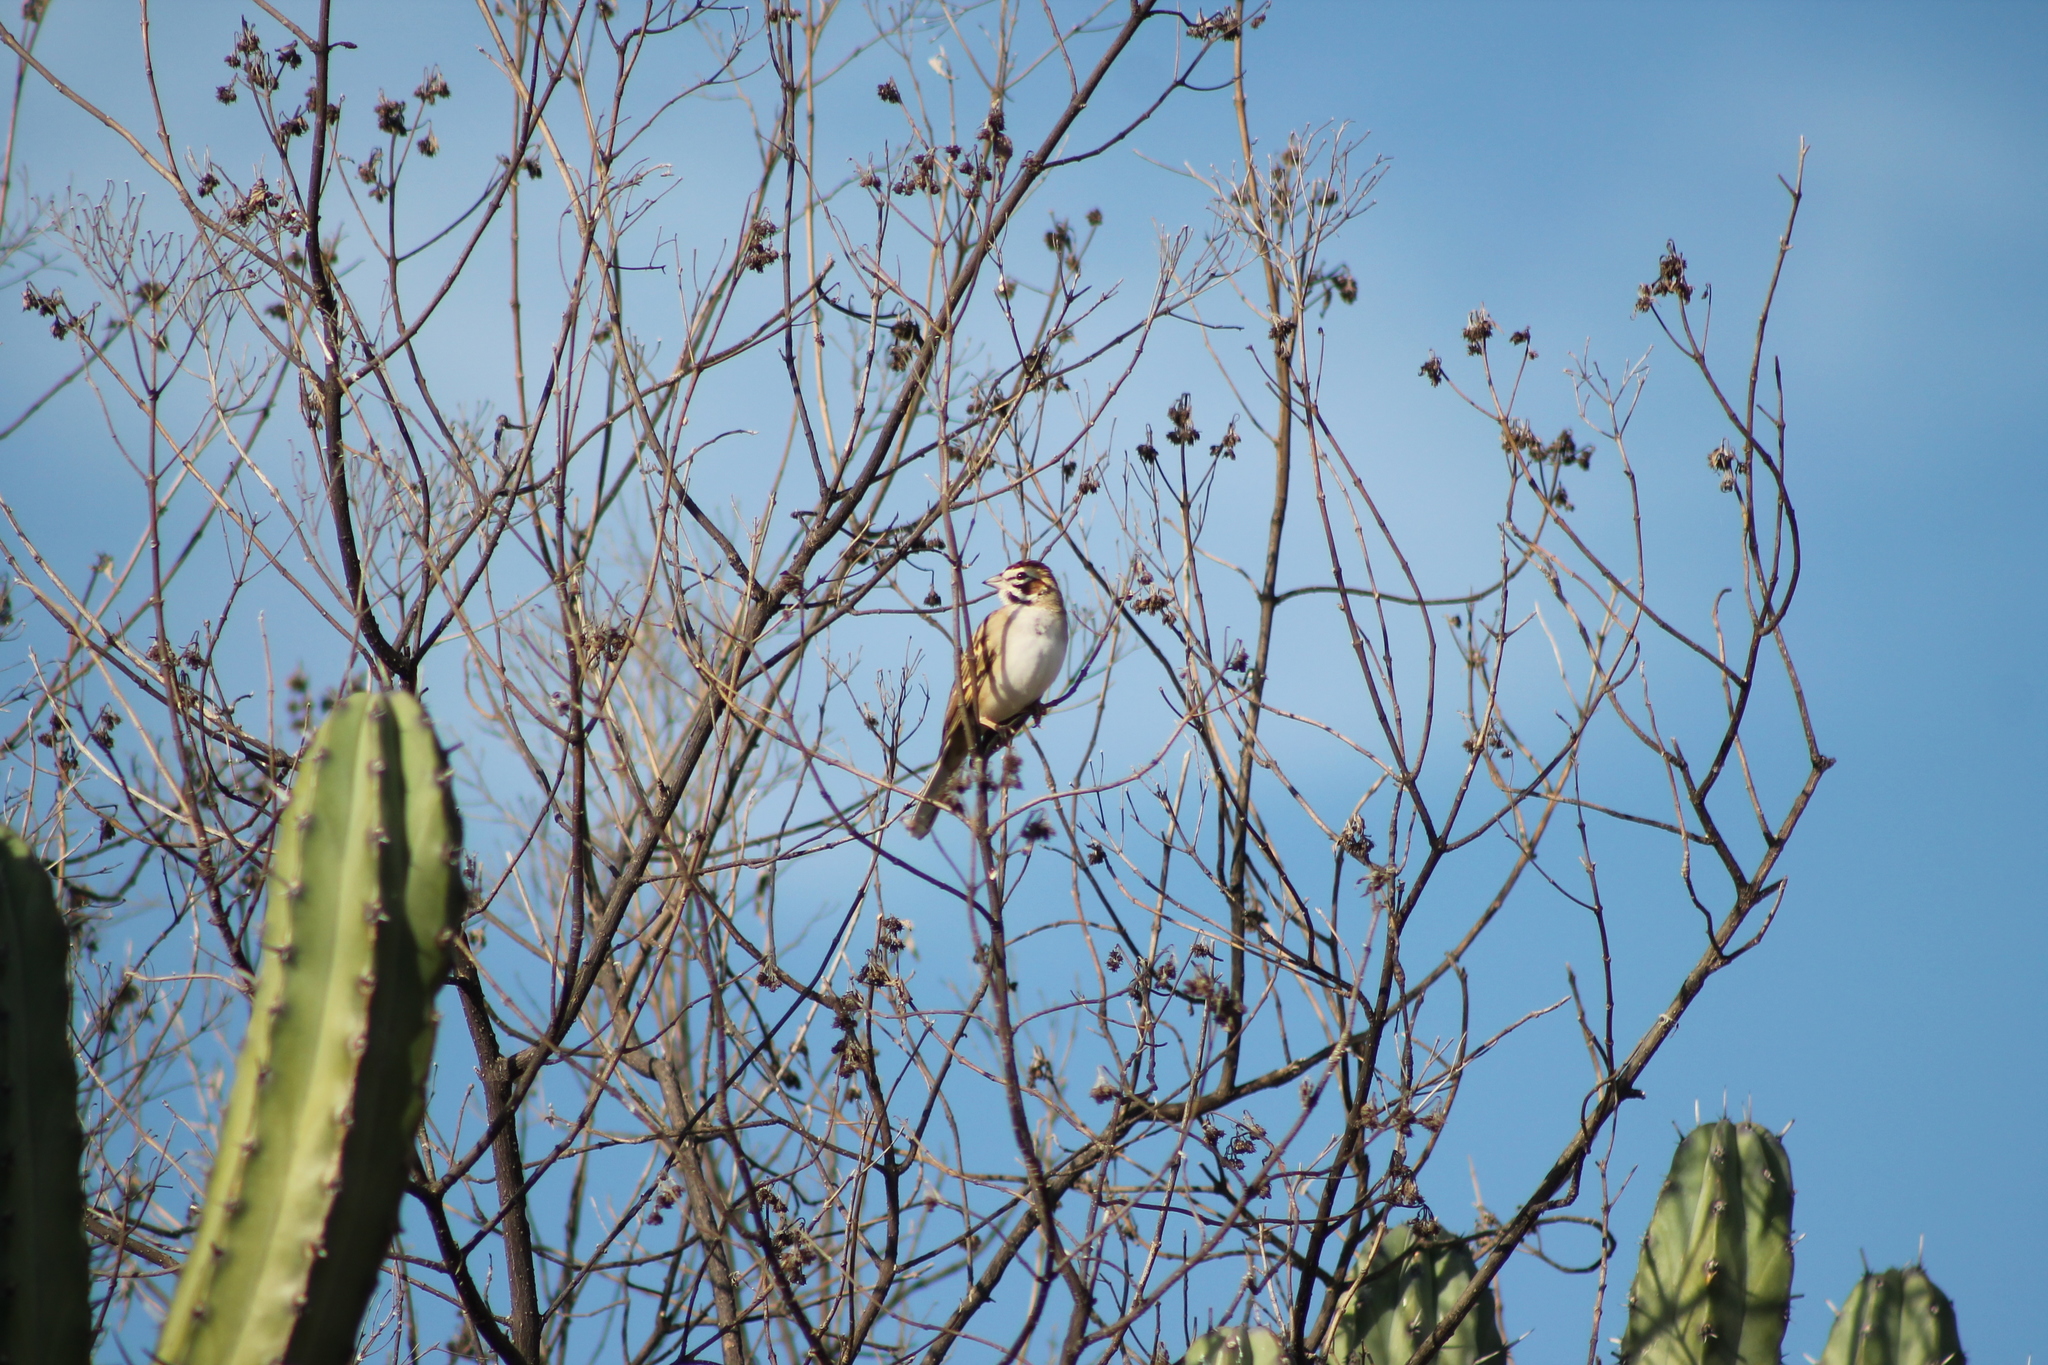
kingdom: Animalia
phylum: Chordata
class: Aves
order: Passeriformes
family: Passerellidae
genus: Chondestes
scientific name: Chondestes grammacus
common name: Lark sparrow
